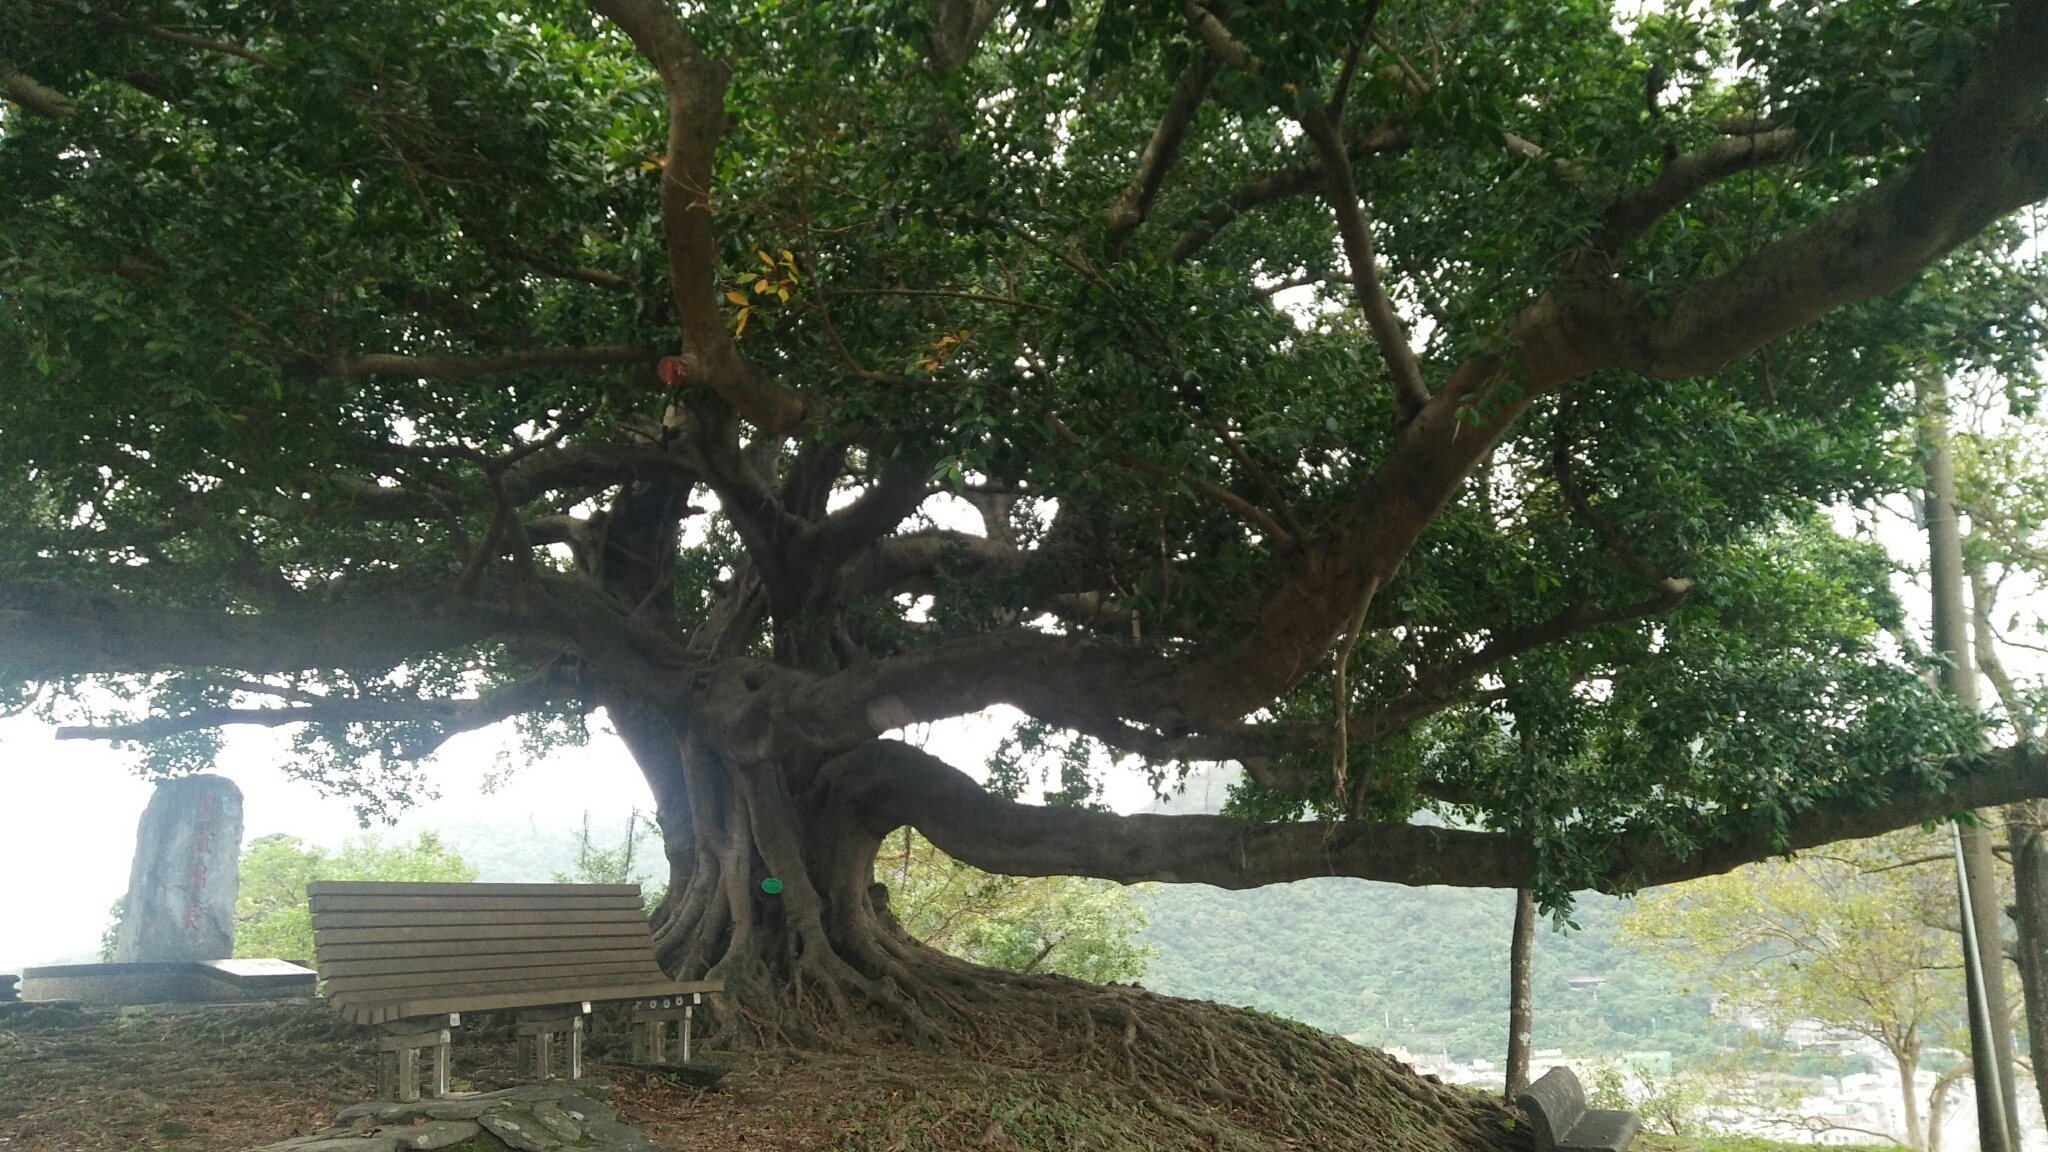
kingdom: Plantae
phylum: Tracheophyta
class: Magnoliopsida
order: Rosales
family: Moraceae
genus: Ficus
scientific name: Ficus microcarpa
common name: Chinese banyan
